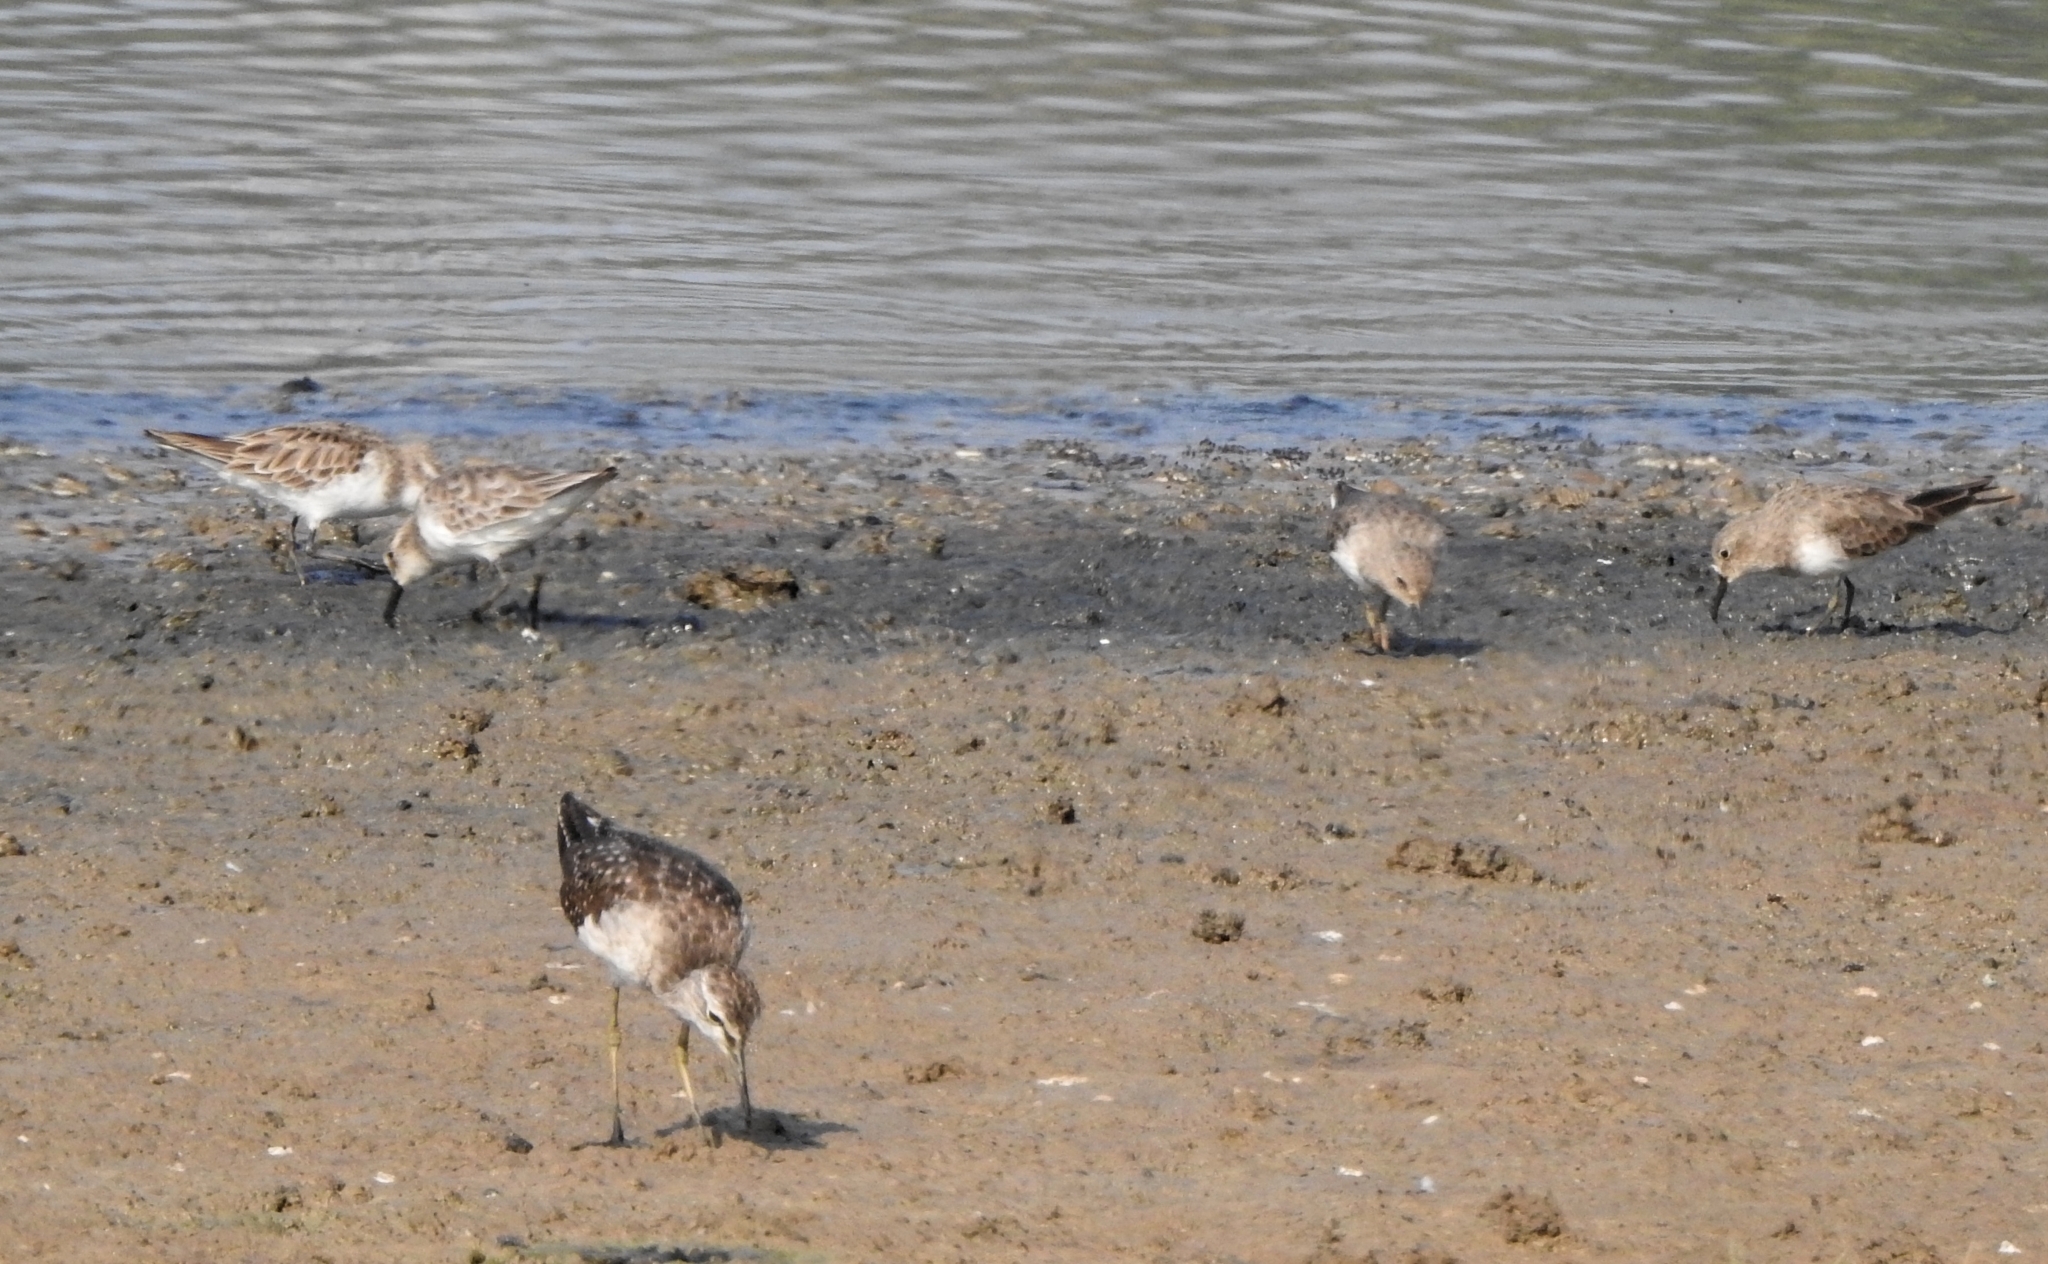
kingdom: Animalia
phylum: Chordata
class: Aves
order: Charadriiformes
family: Scolopacidae
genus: Tringa
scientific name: Tringa glareola
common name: Wood sandpiper
